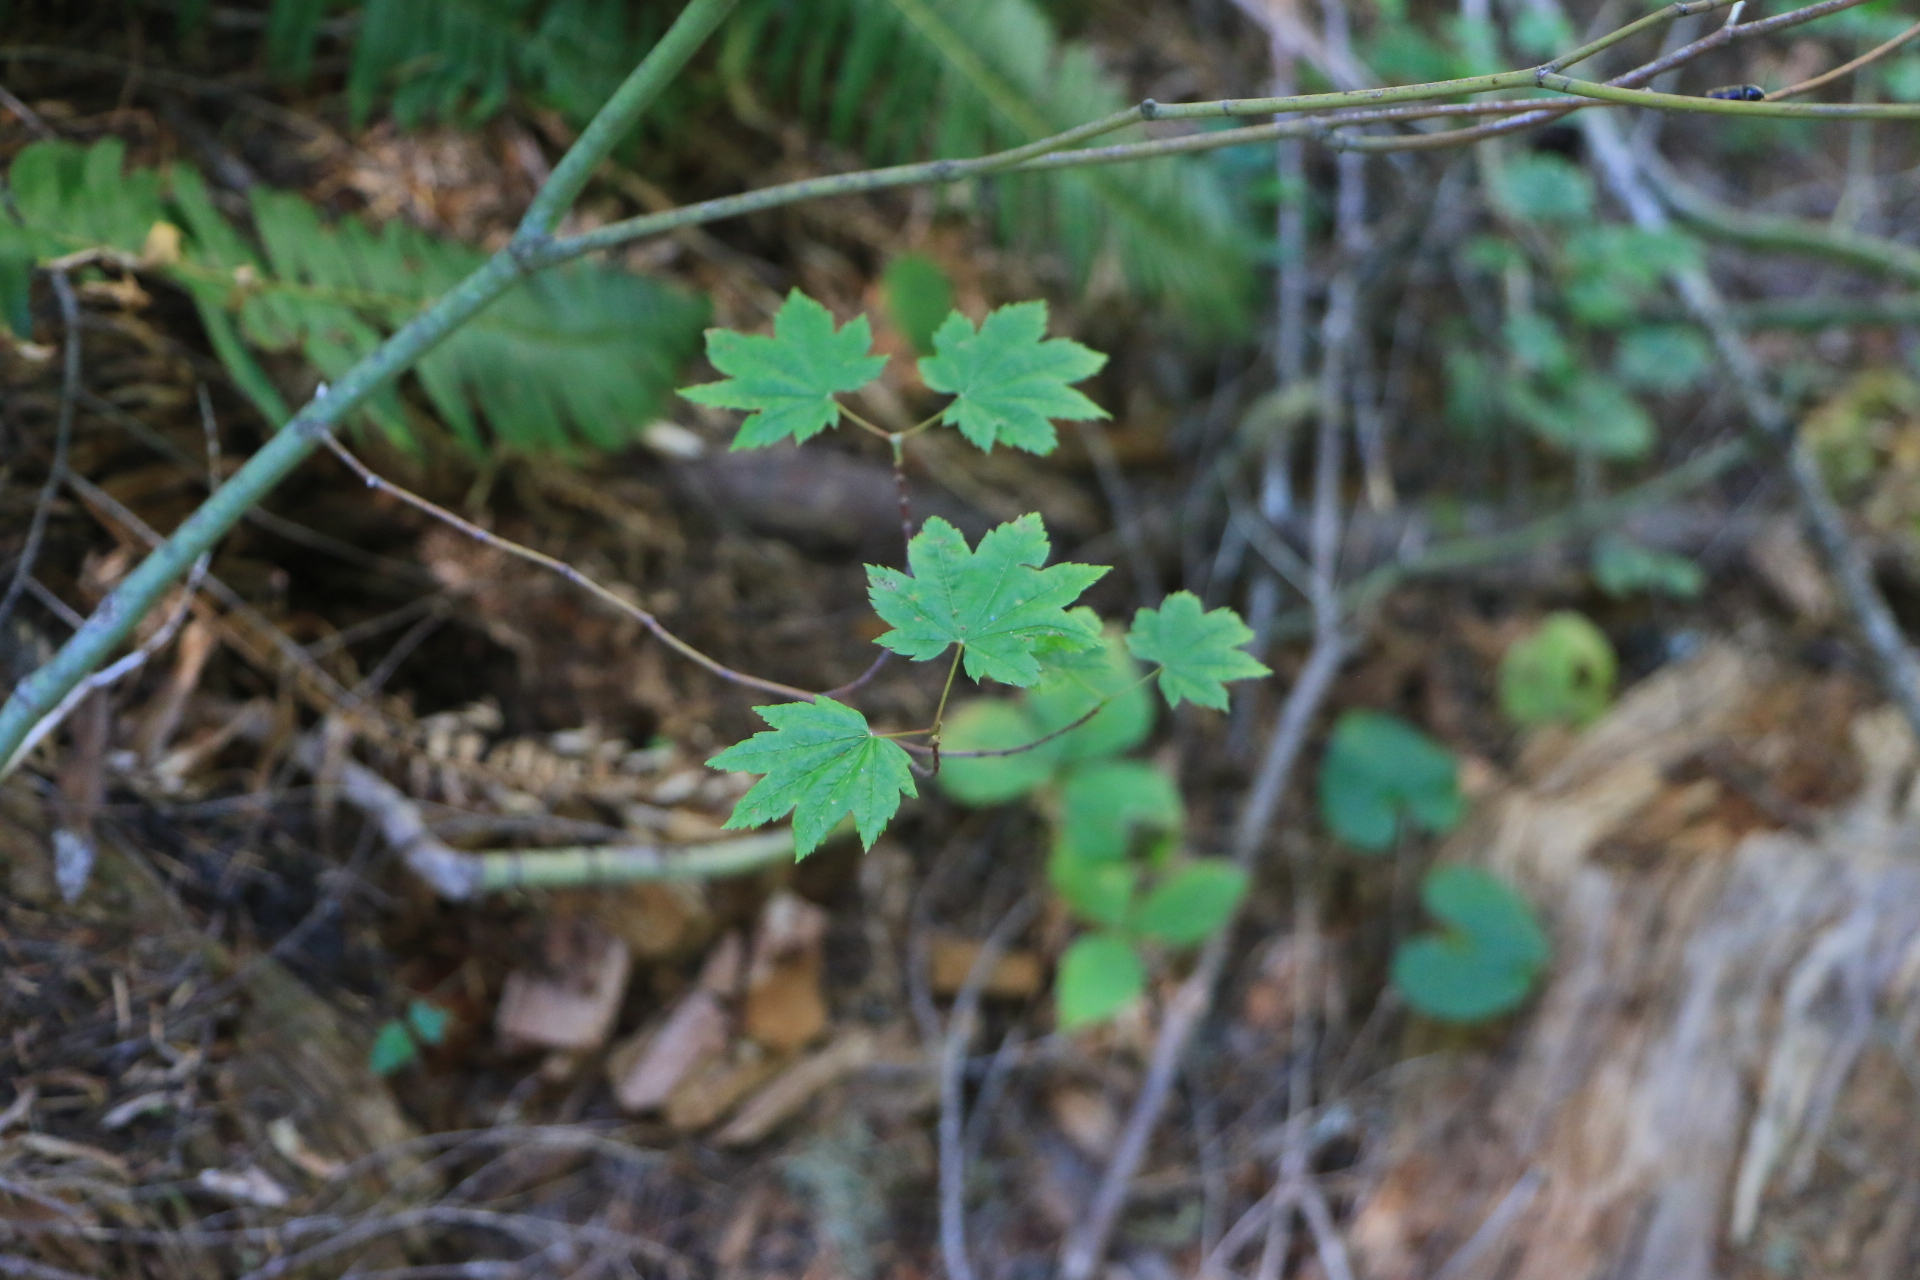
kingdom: Plantae
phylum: Tracheophyta
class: Magnoliopsida
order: Sapindales
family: Sapindaceae
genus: Acer
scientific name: Acer circinatum
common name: Vine maple
